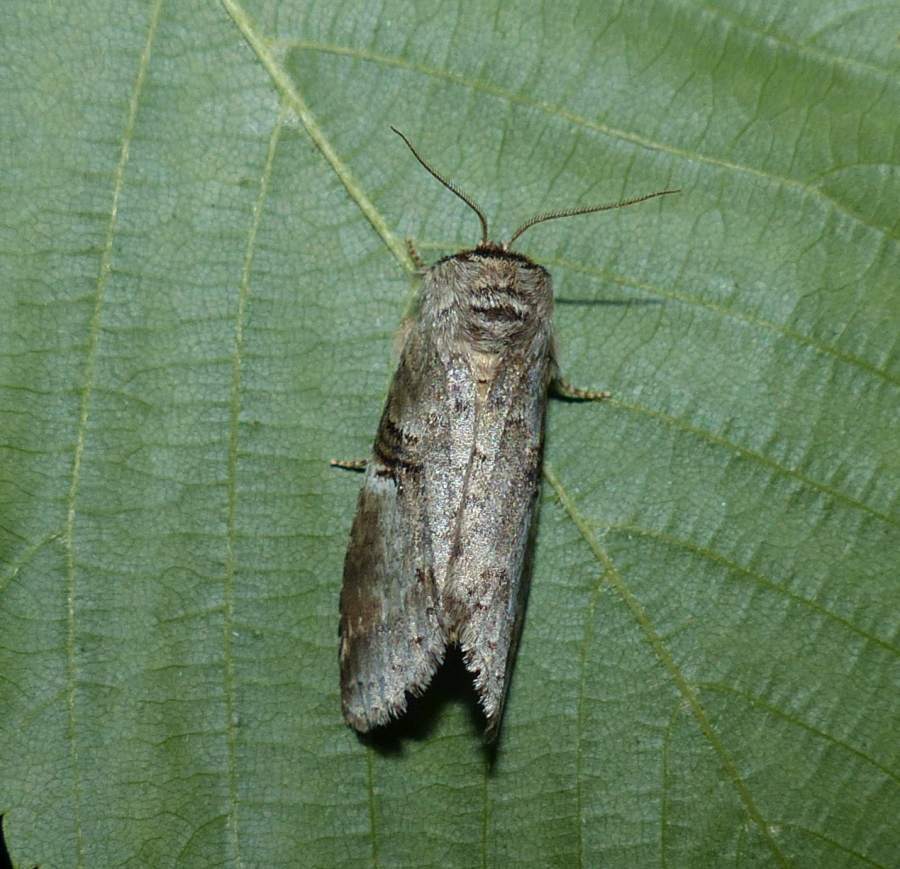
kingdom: Animalia
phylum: Arthropoda
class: Insecta
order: Lepidoptera
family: Notodontidae
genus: Ellida
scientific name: Ellida caniplaga
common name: Linden prominent
